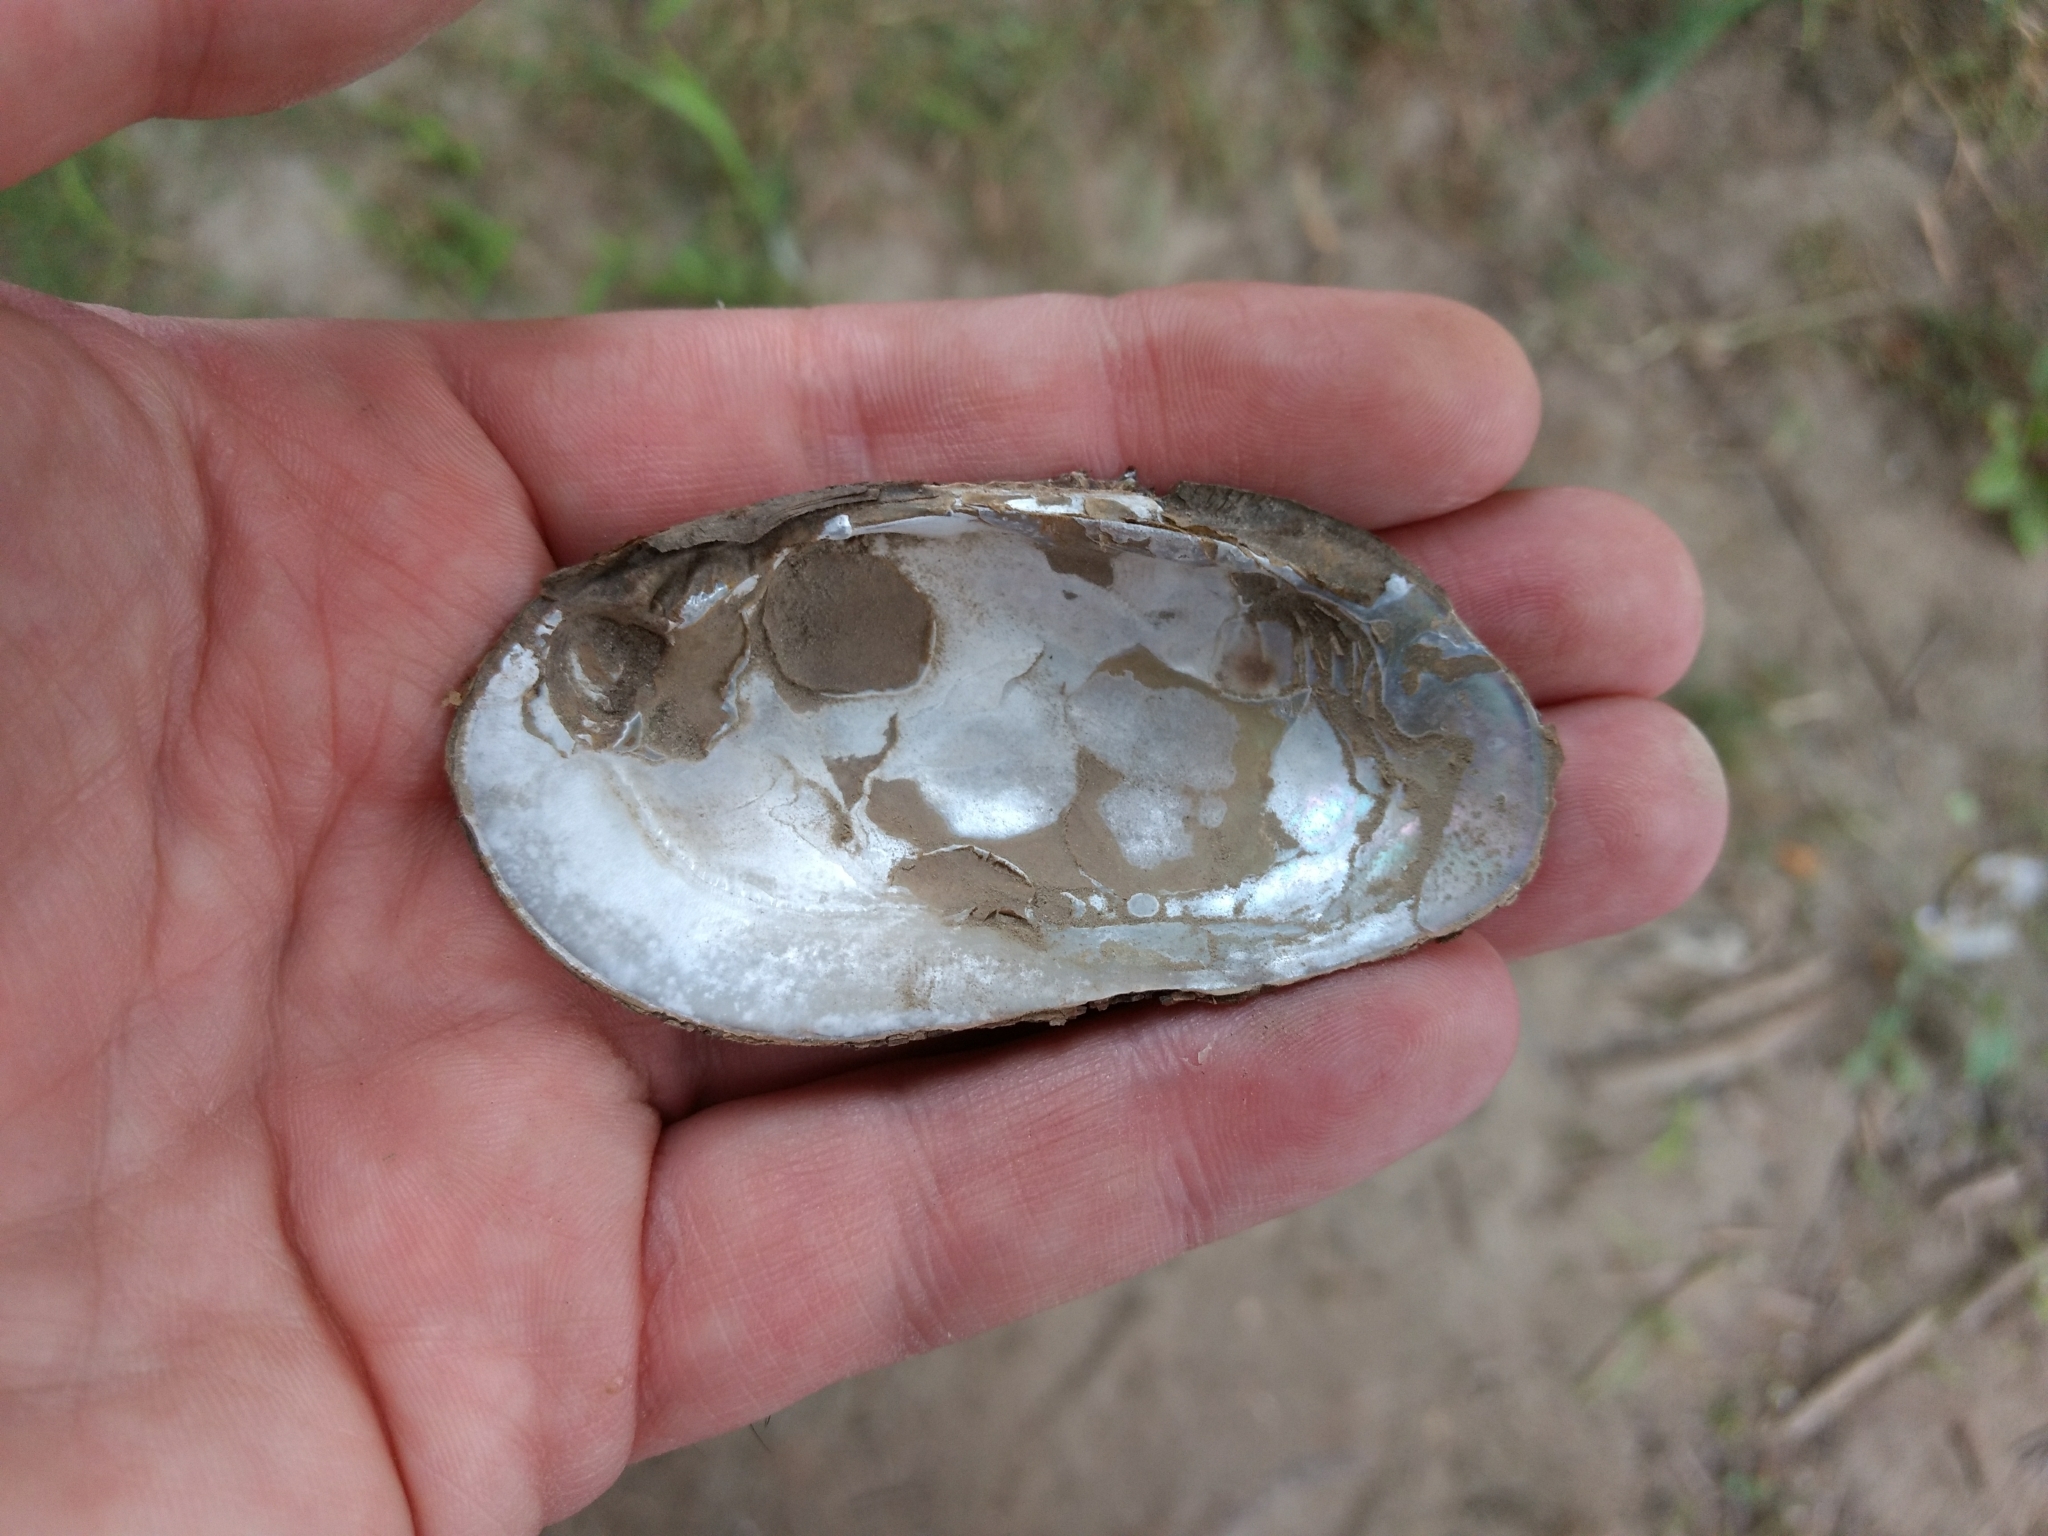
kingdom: Animalia
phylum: Mollusca
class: Bivalvia
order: Unionida
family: Unionidae
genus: Elliptio
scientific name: Elliptio complanata
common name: Eastern elliptio
